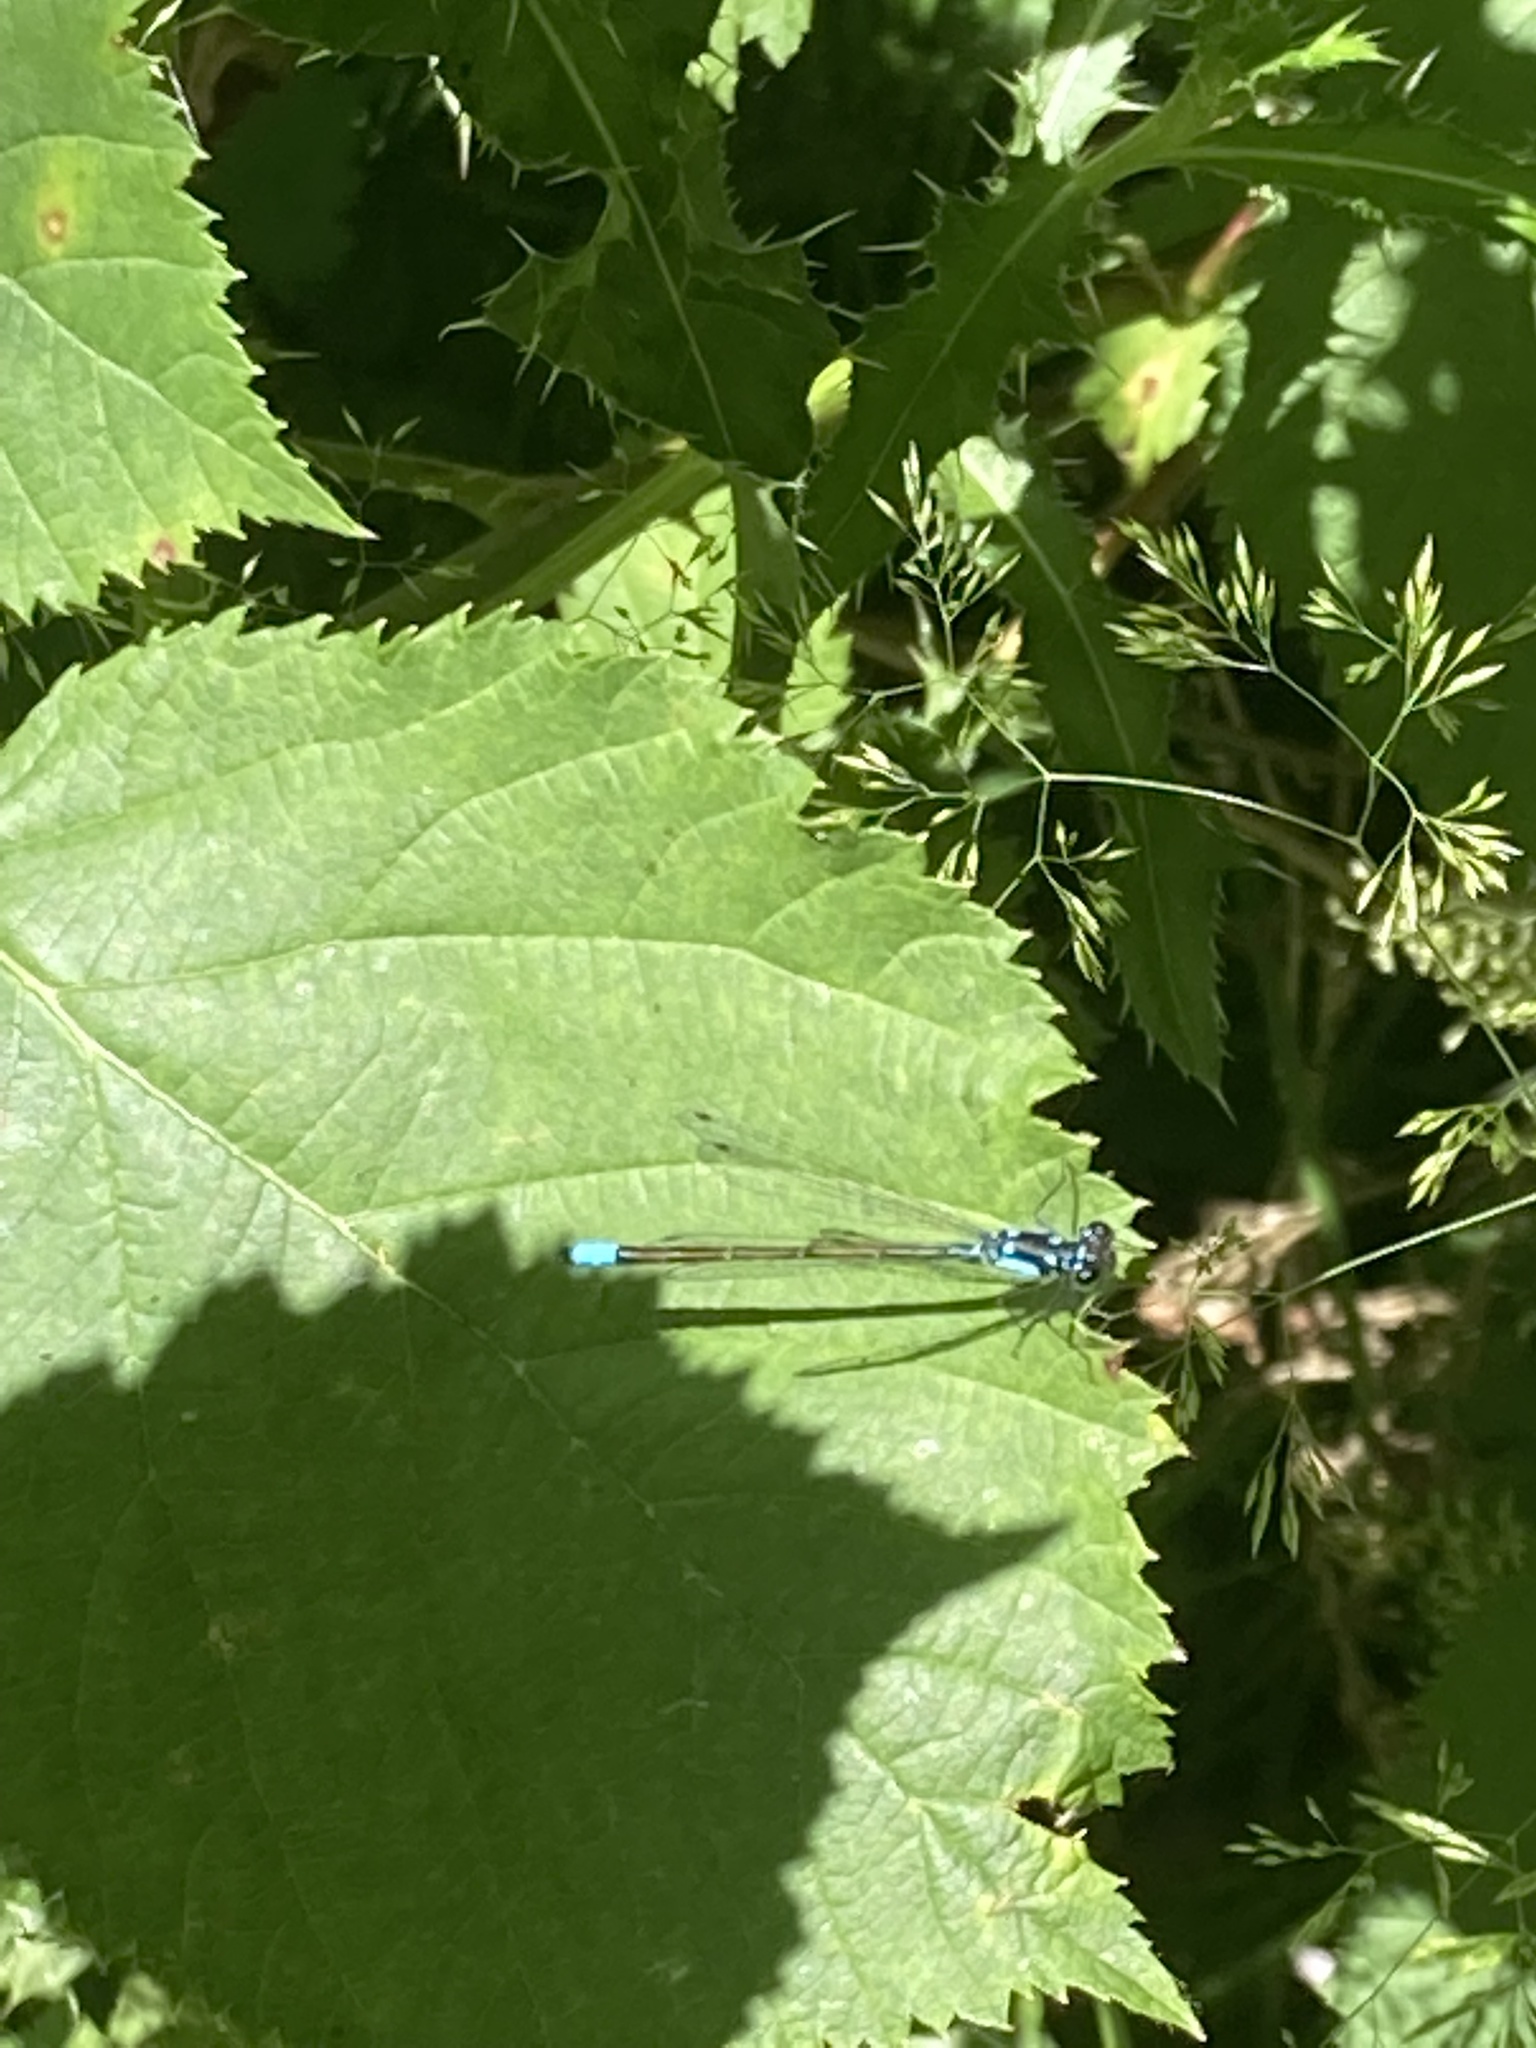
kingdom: Animalia
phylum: Arthropoda
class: Insecta
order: Odonata
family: Coenagrionidae
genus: Ischnura
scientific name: Ischnura cervula
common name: Pacific forktail
